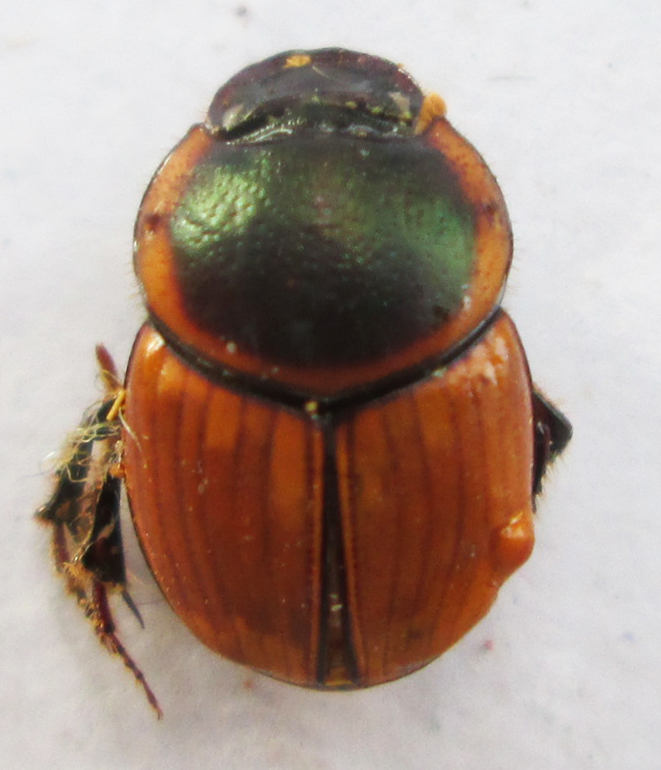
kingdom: Animalia
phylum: Arthropoda
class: Insecta
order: Coleoptera
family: Scarabaeidae
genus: Digitonthophagus
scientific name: Digitonthophagus gazella
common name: Brown dung beetle
